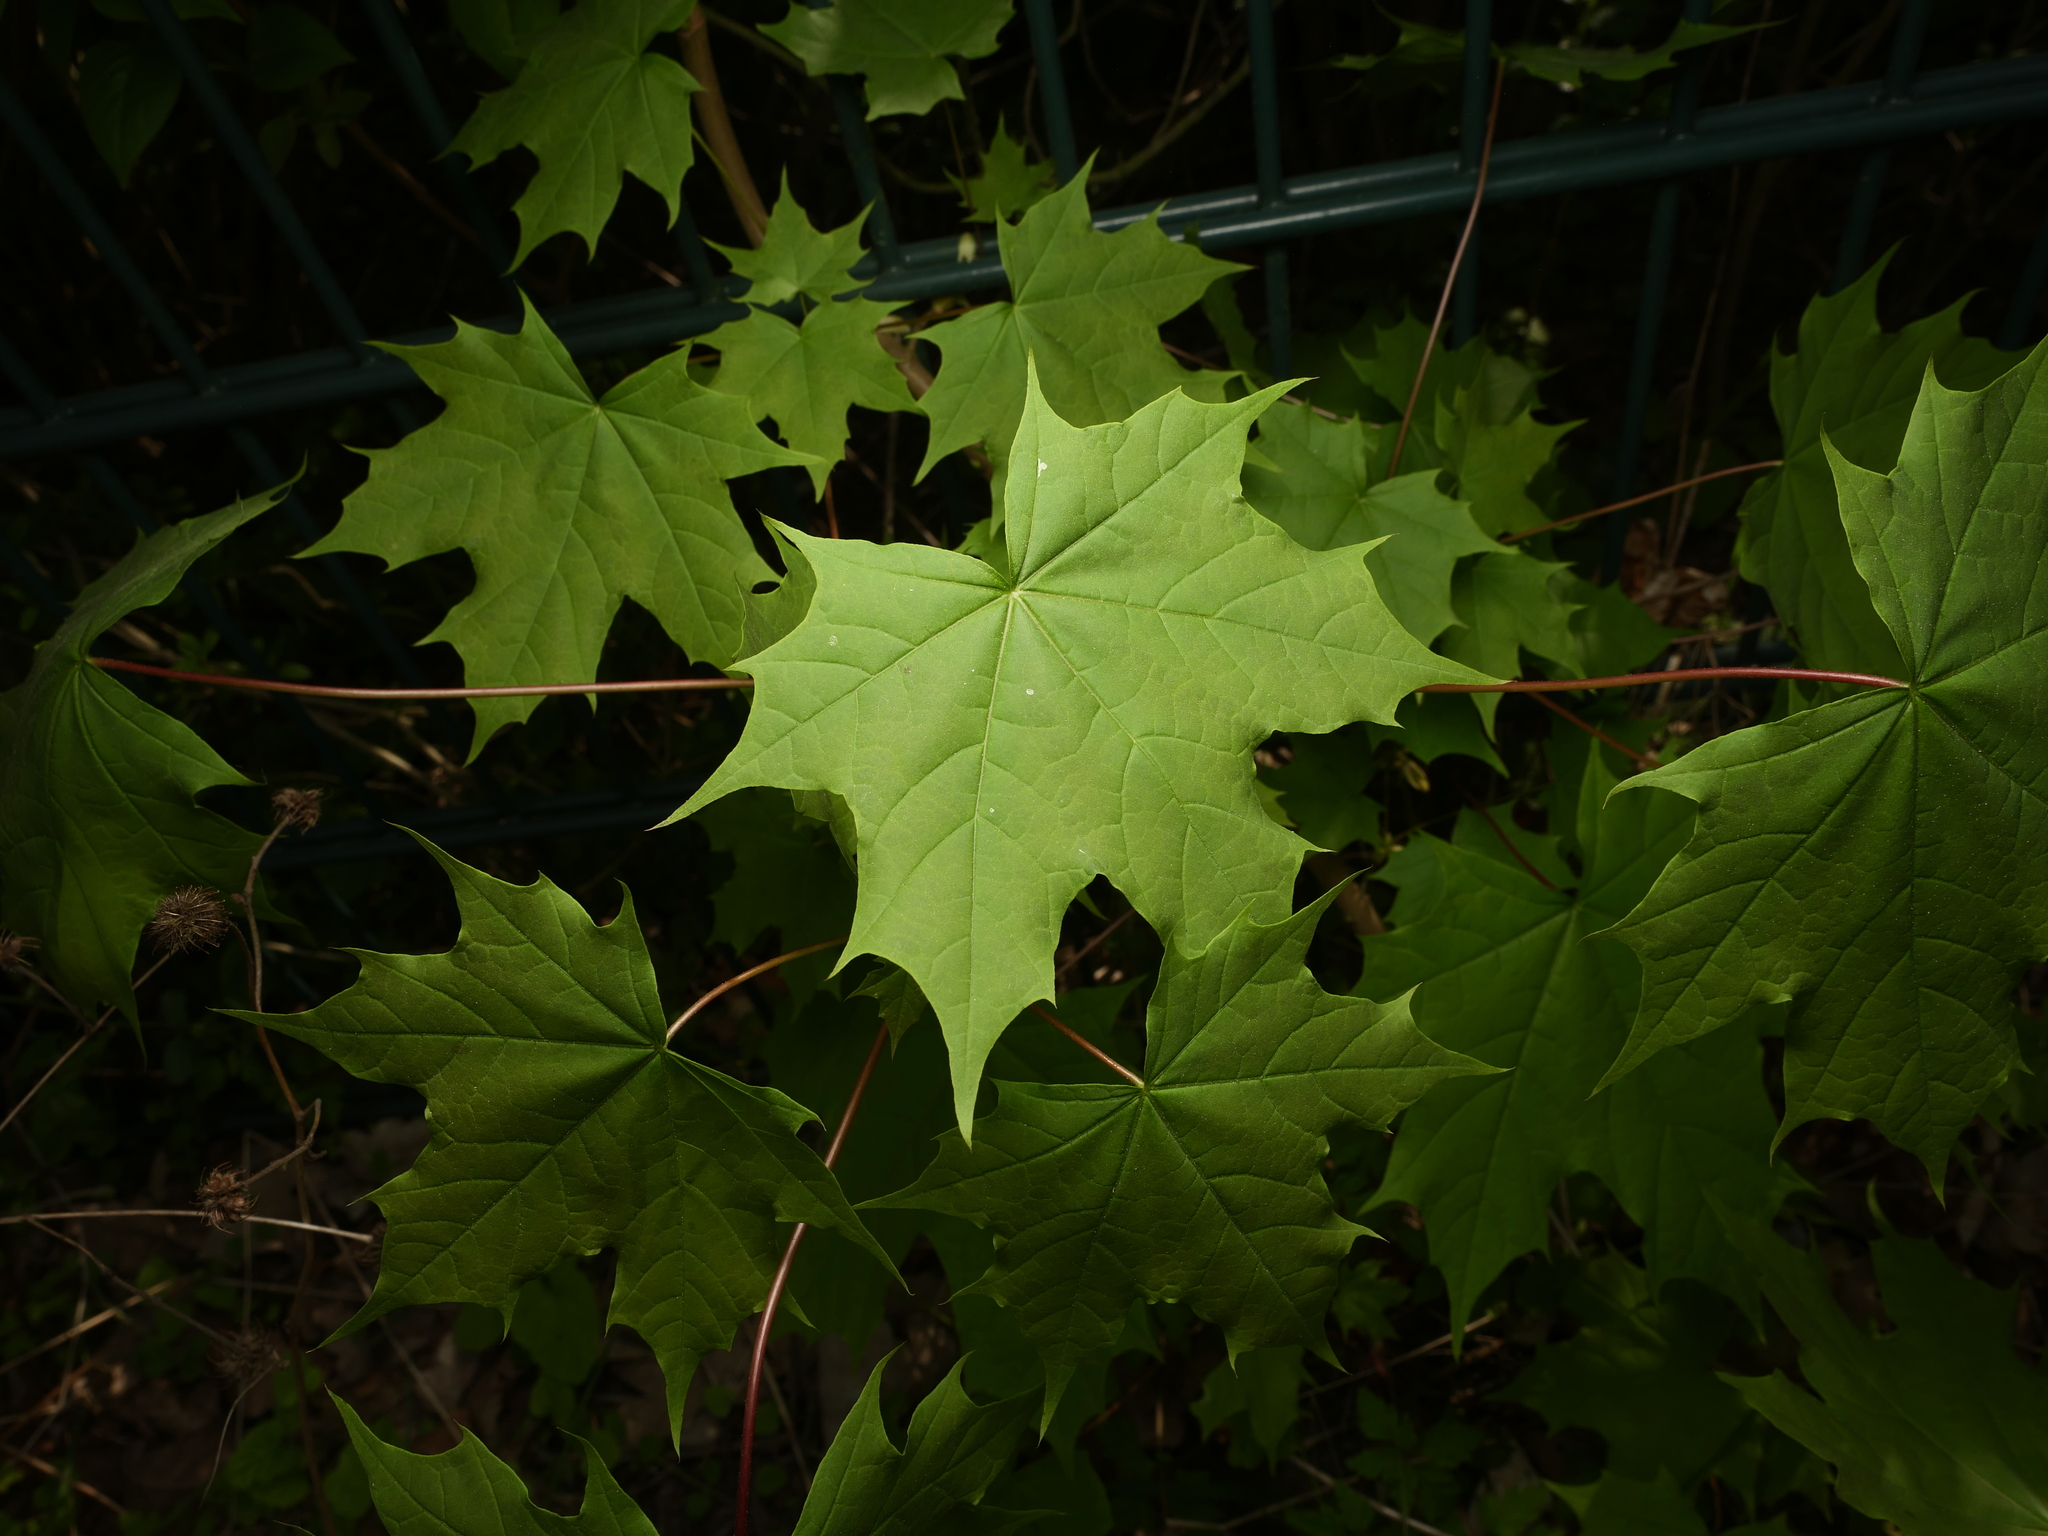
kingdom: Plantae
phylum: Tracheophyta
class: Magnoliopsida
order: Sapindales
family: Sapindaceae
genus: Acer
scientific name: Acer platanoides
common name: Norway maple
